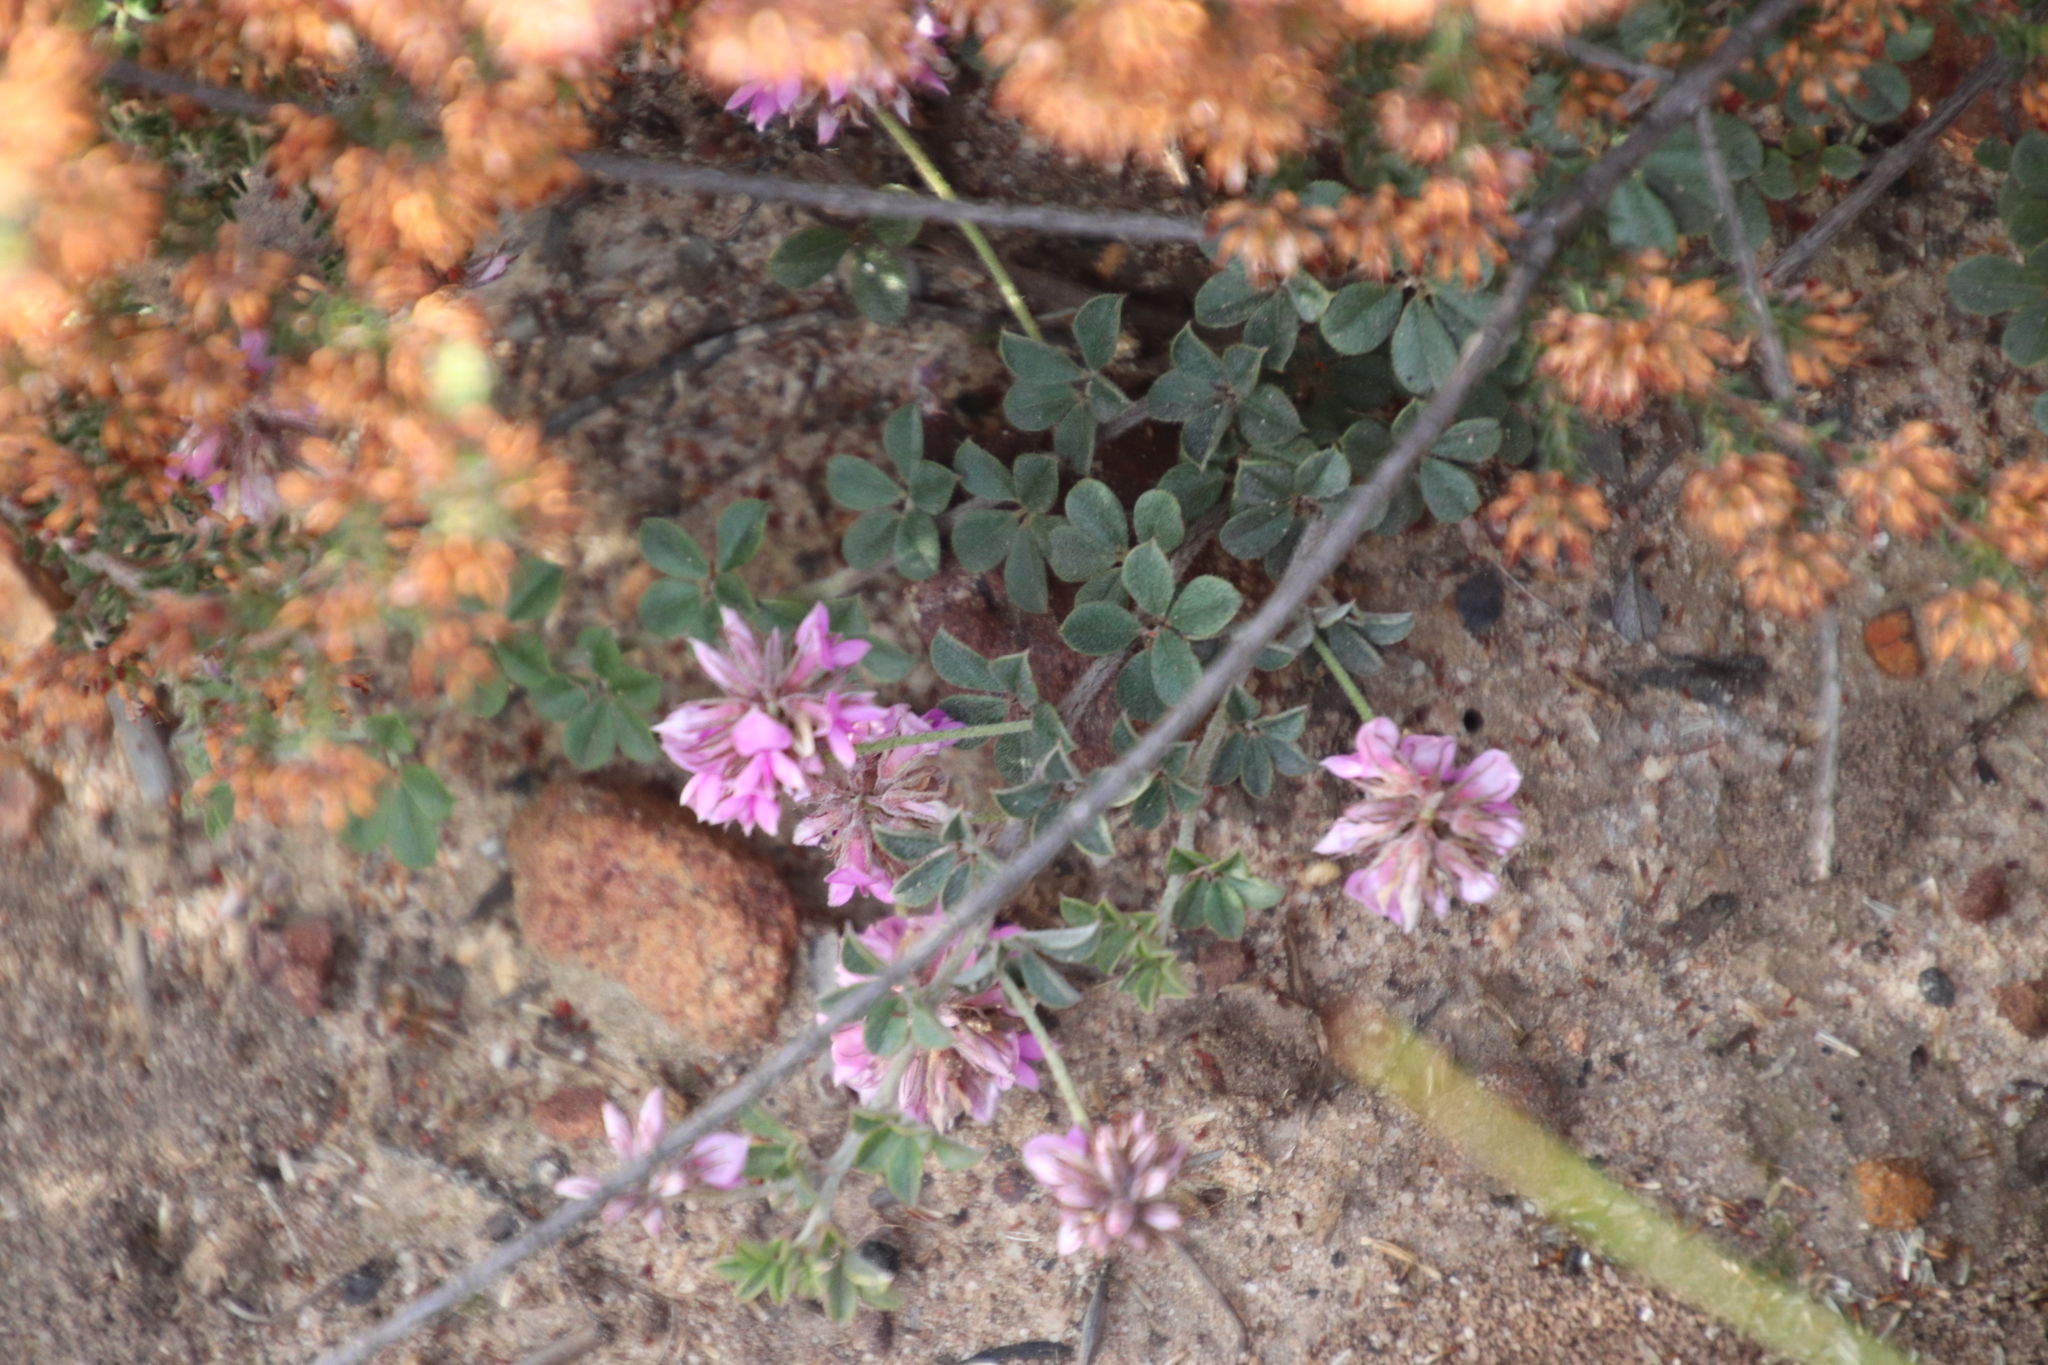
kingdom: Plantae
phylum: Tracheophyta
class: Magnoliopsida
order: Fabales
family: Fabaceae
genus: Indigofera
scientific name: Indigofera mauritanica
